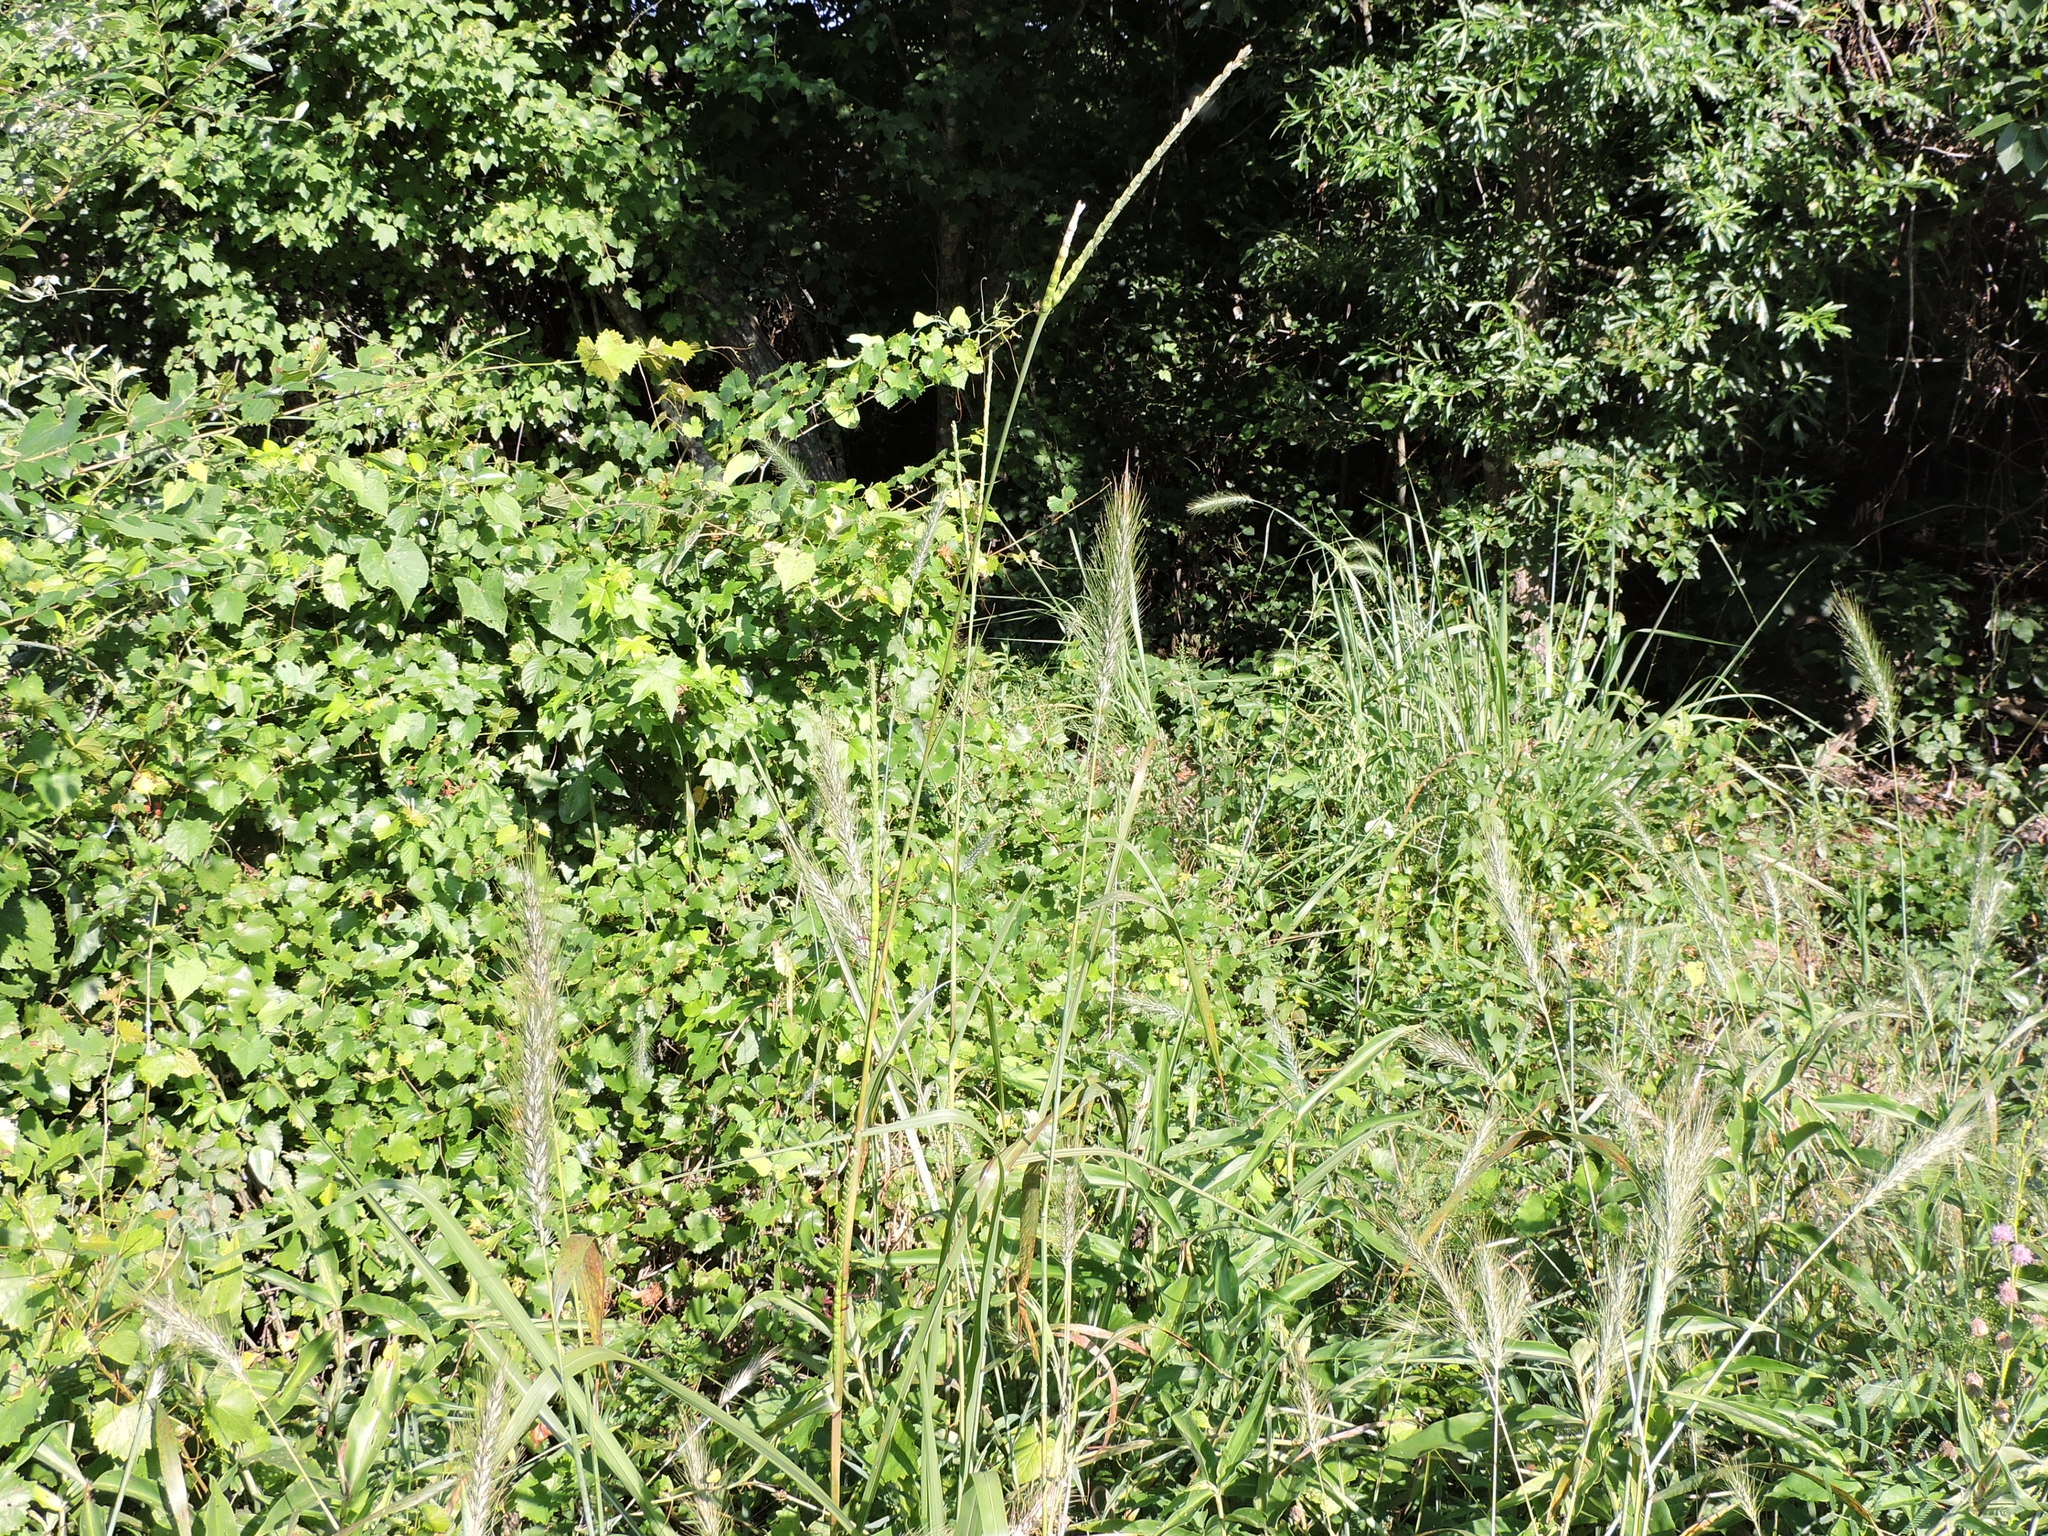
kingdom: Plantae
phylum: Tracheophyta
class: Liliopsida
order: Poales
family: Poaceae
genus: Tripsacum
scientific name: Tripsacum dactyloides
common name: Buffalo-grass
